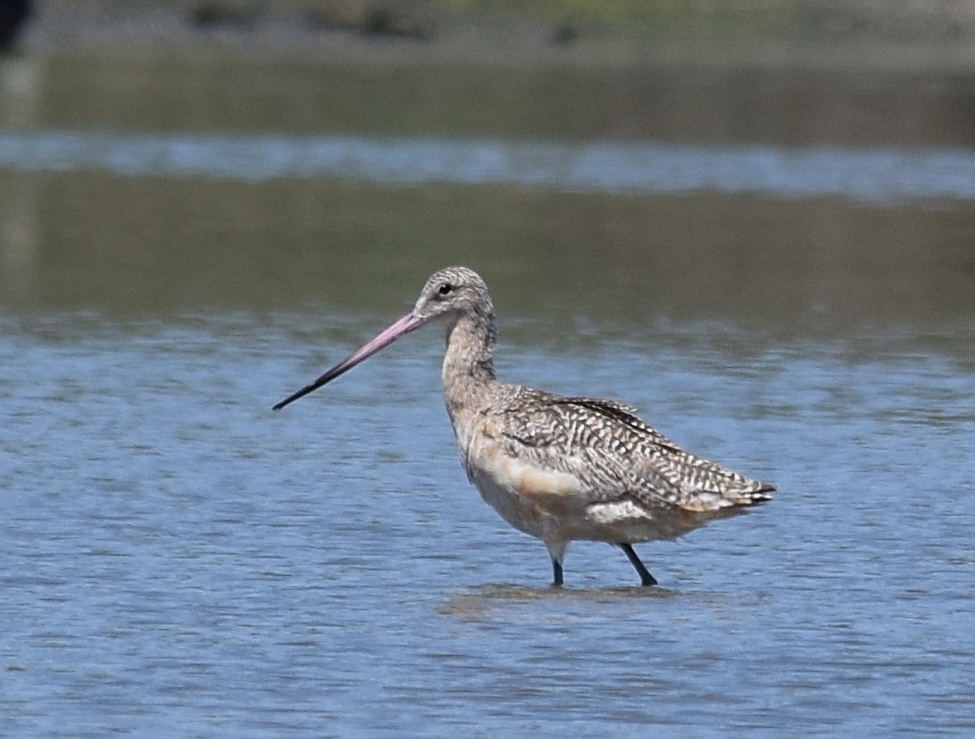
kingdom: Animalia
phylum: Chordata
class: Aves
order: Charadriiformes
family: Scolopacidae
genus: Limosa
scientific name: Limosa fedoa
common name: Marbled godwit
